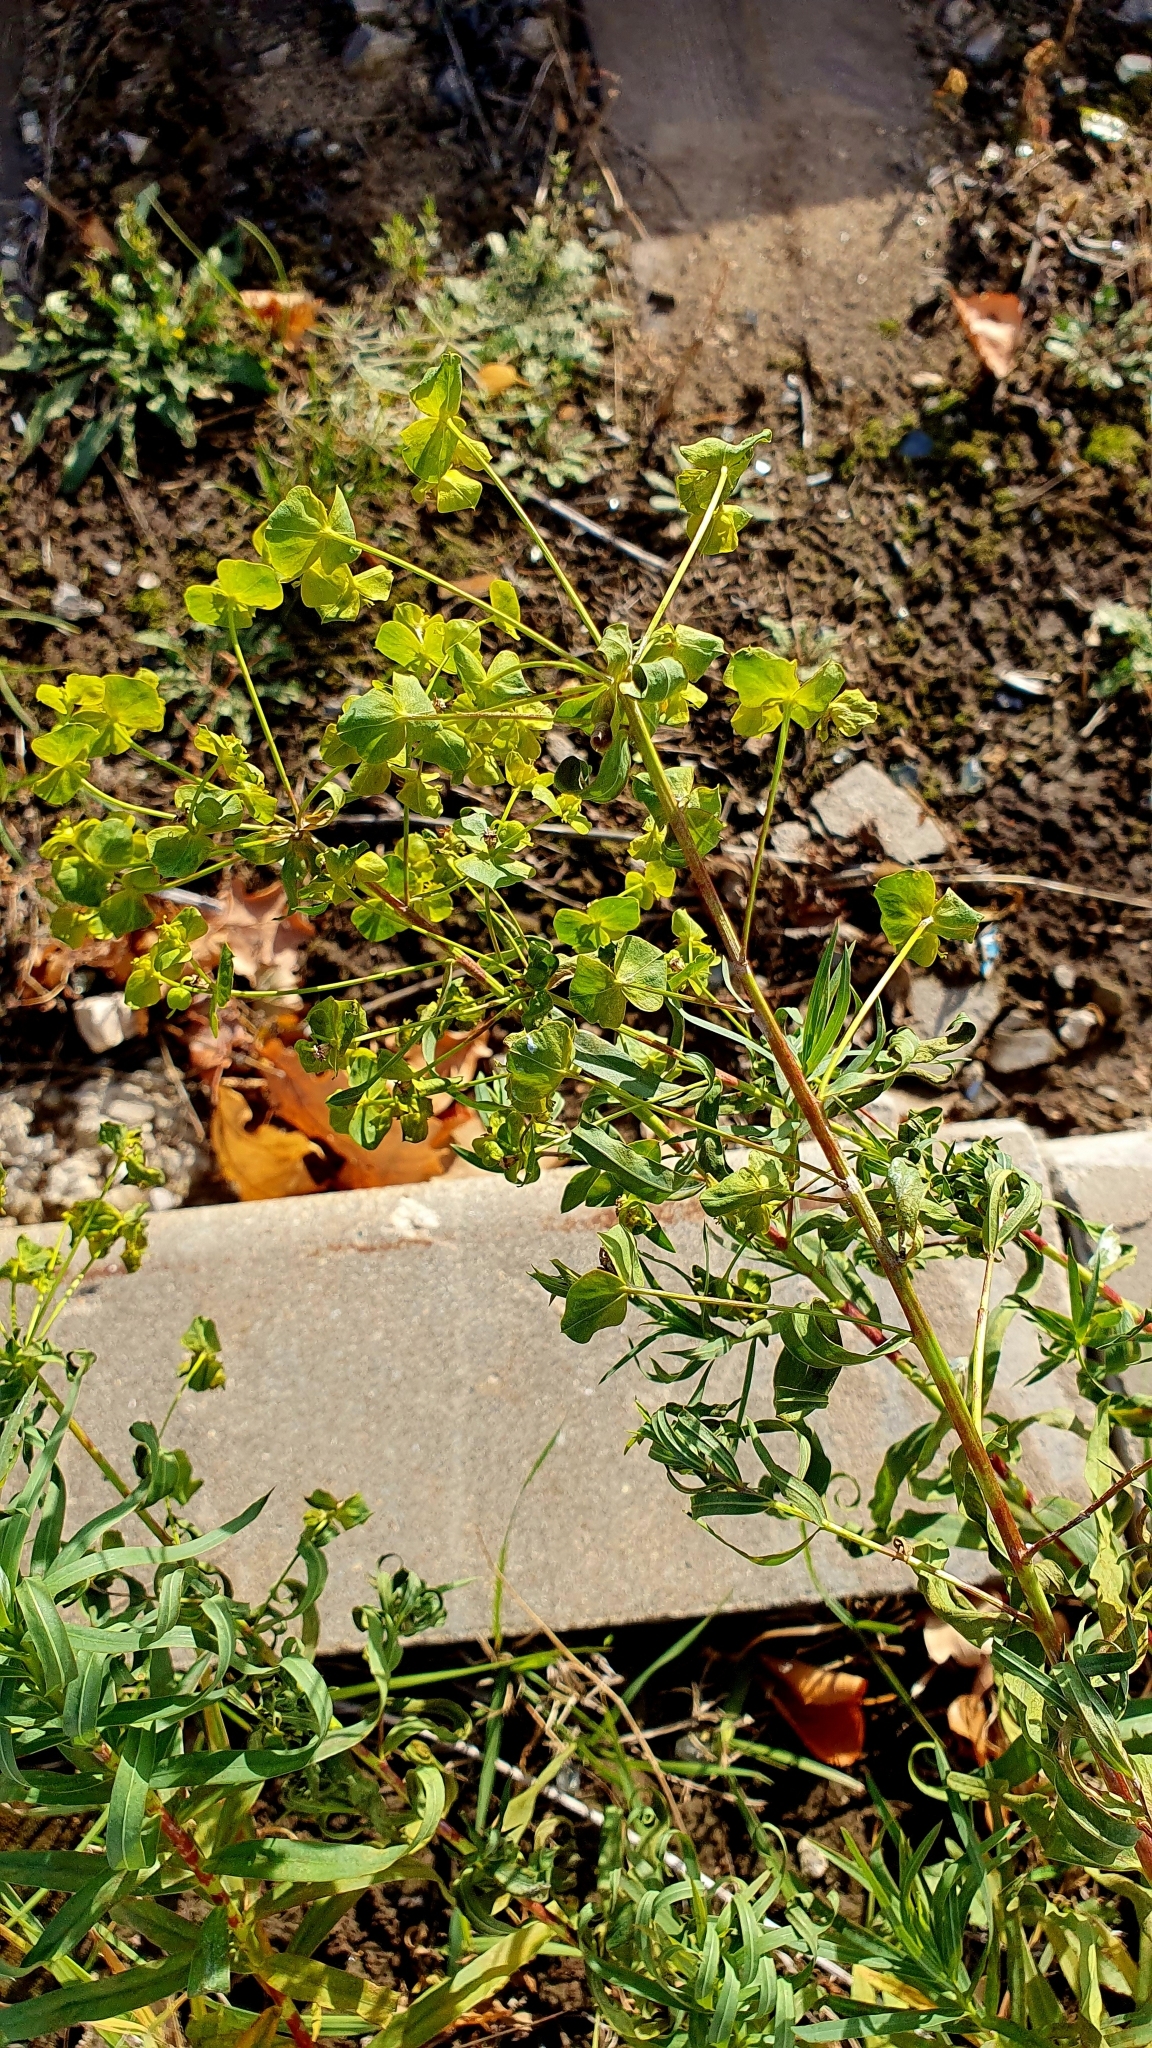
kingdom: Plantae
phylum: Tracheophyta
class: Magnoliopsida
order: Malpighiales
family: Euphorbiaceae
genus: Euphorbia
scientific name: Euphorbia virgata
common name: Leafy spurge
